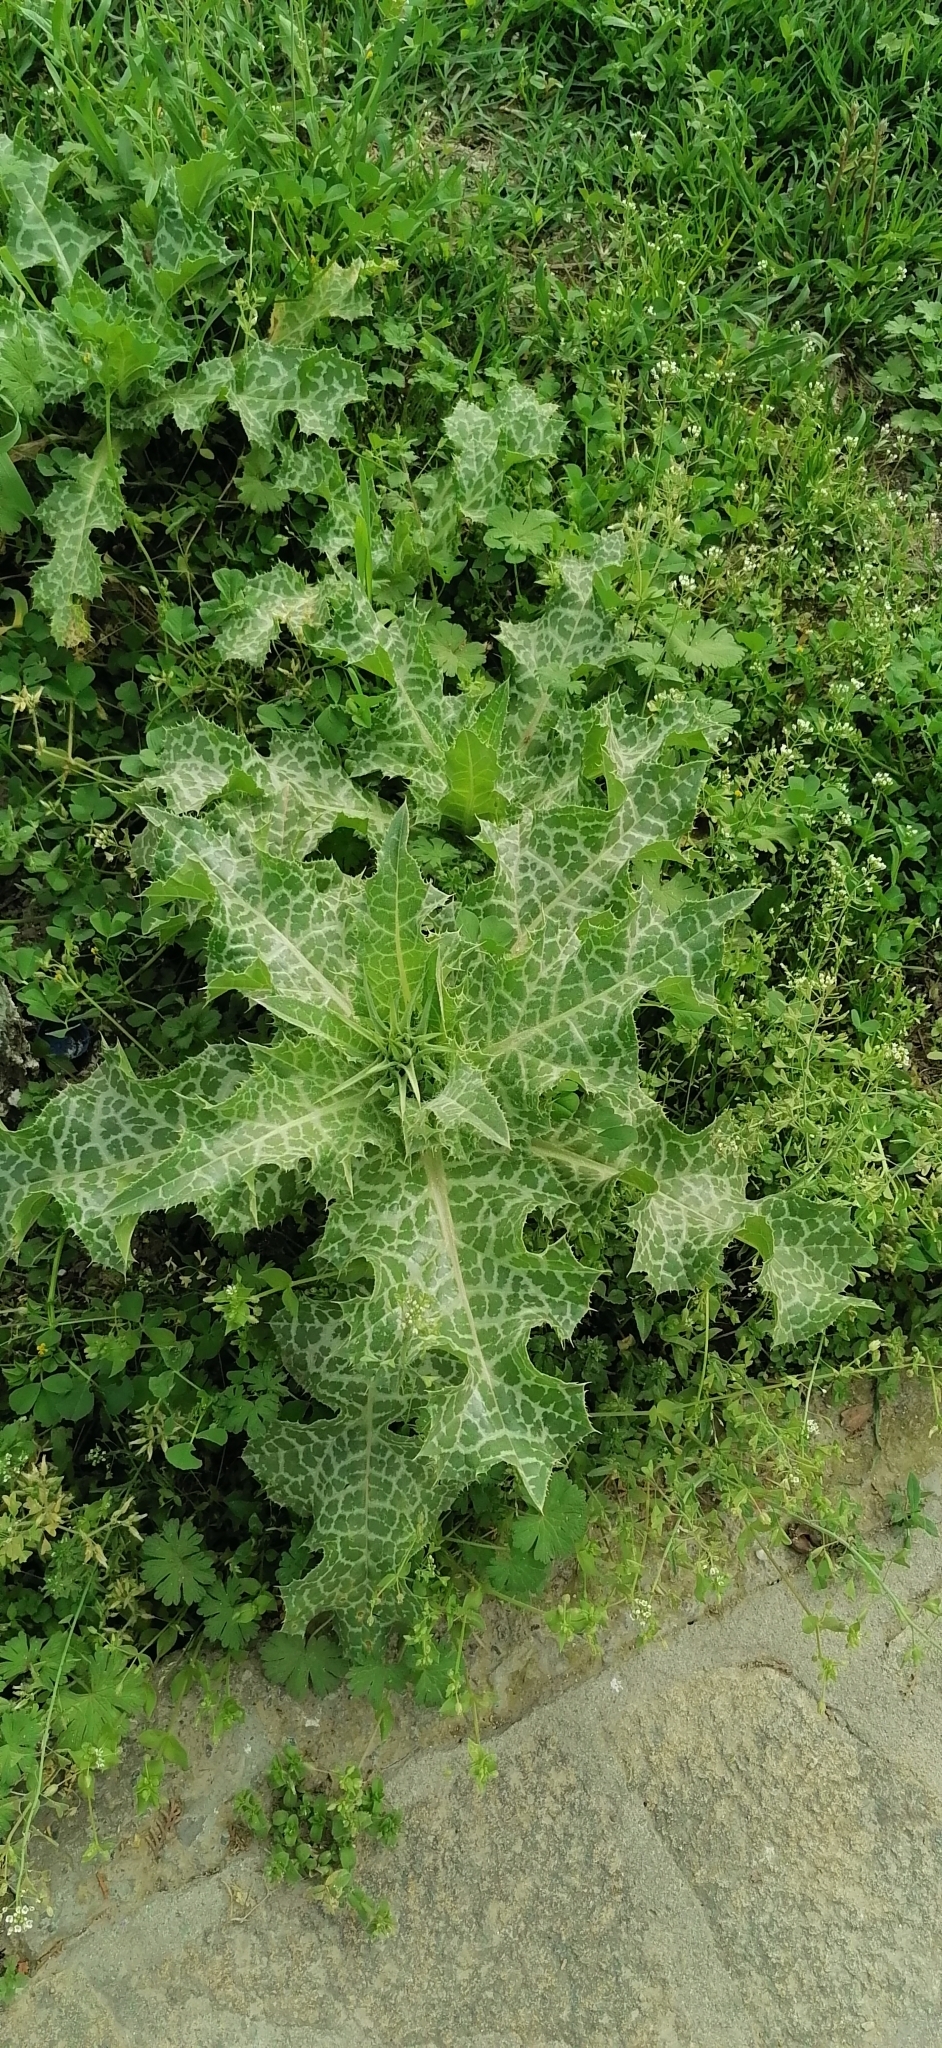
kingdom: Plantae
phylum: Tracheophyta
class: Magnoliopsida
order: Asterales
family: Asteraceae
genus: Silybum
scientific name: Silybum marianum
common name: Milk thistle
